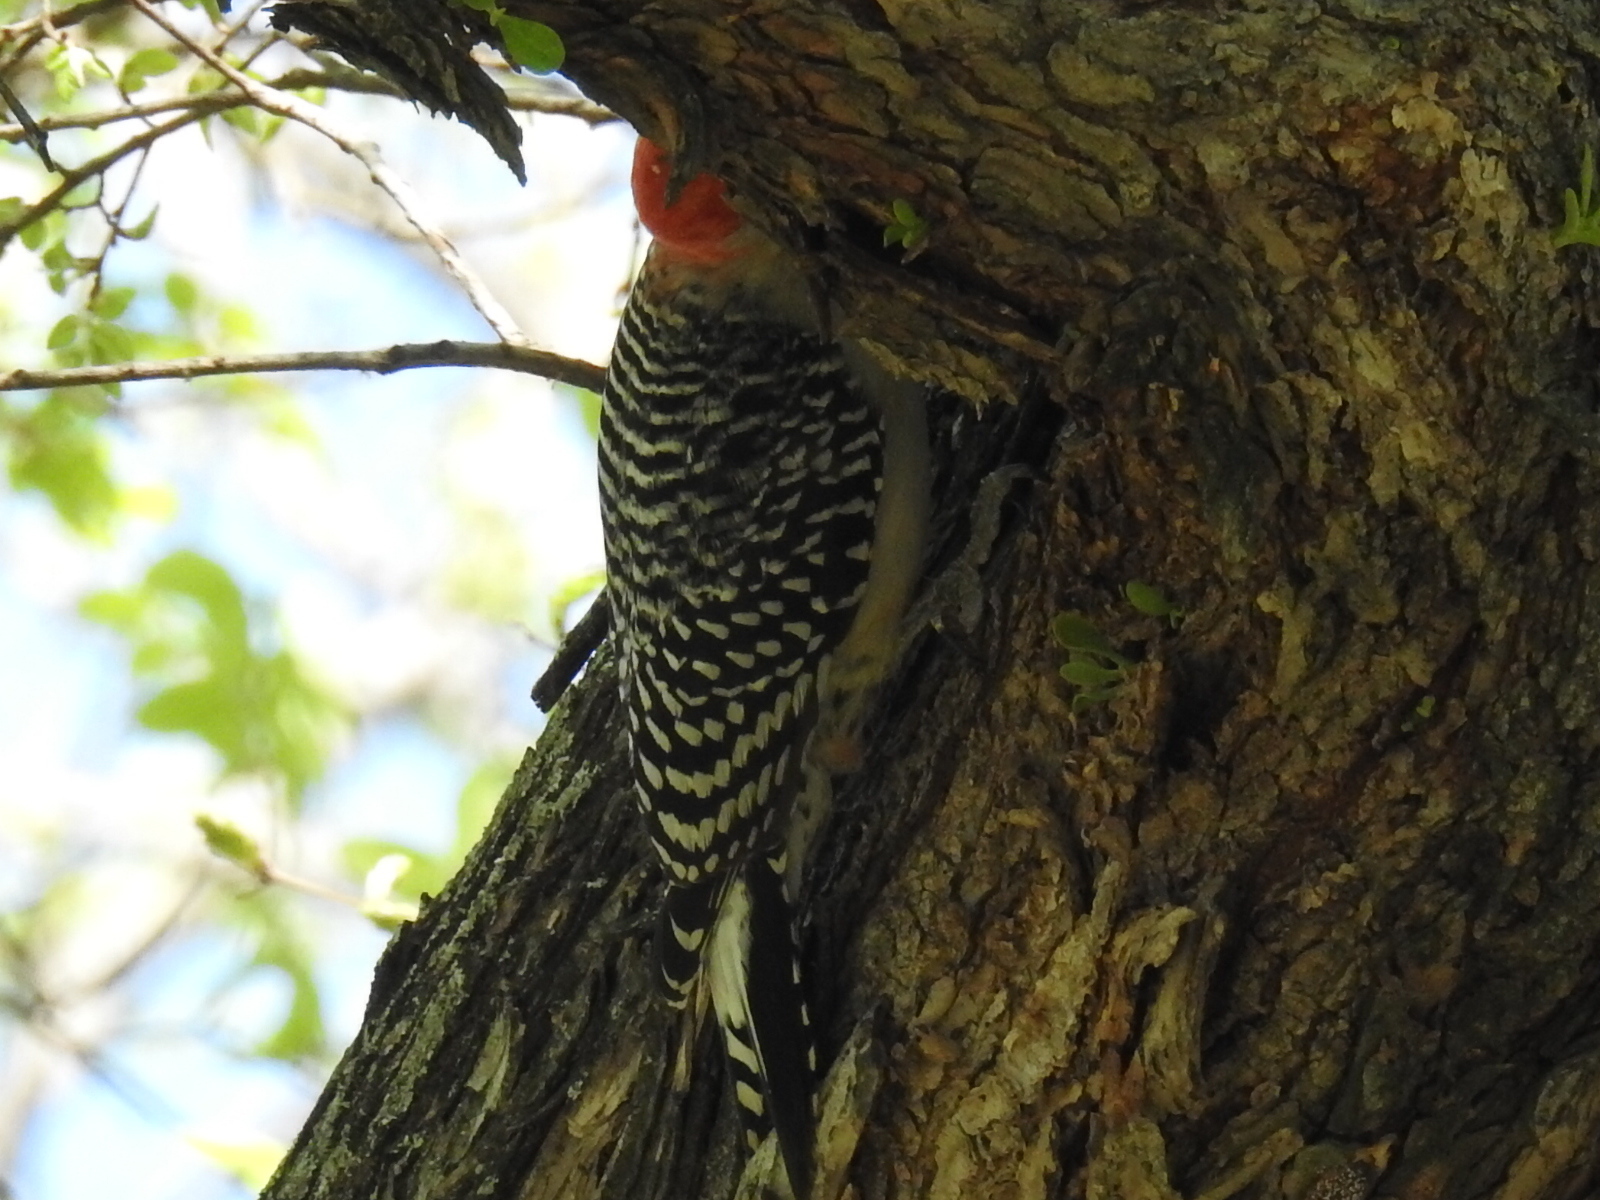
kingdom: Animalia
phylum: Chordata
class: Aves
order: Piciformes
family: Picidae
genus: Melanerpes
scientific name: Melanerpes carolinus
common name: Red-bellied woodpecker
